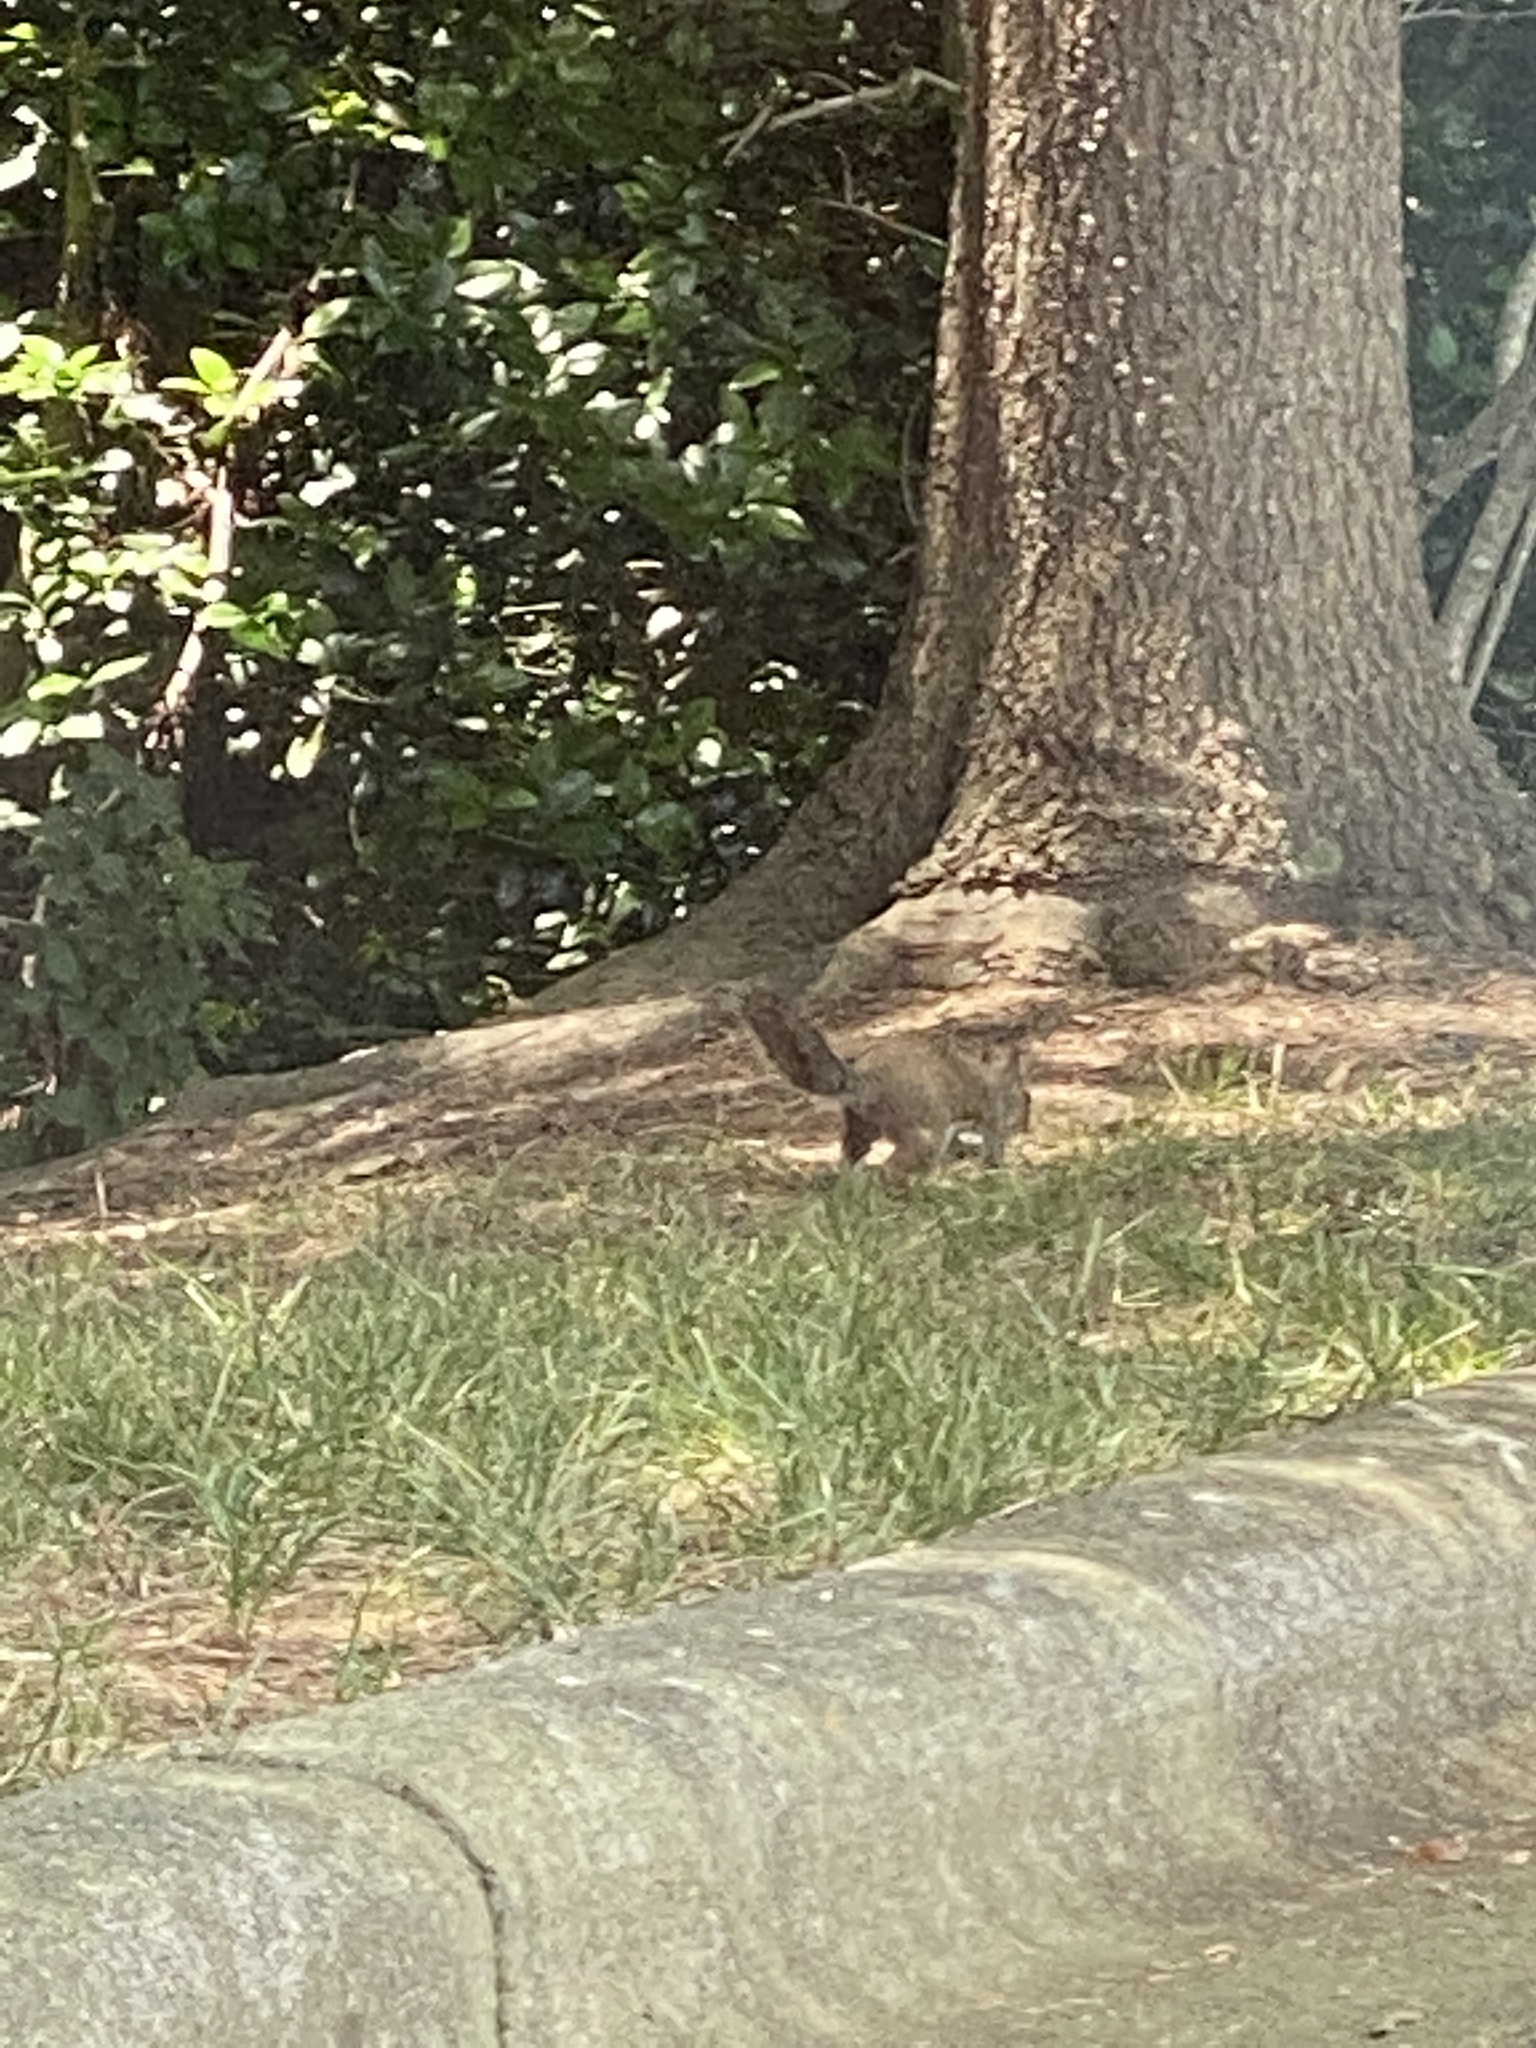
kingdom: Animalia
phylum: Chordata
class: Mammalia
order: Rodentia
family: Sciuridae
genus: Sciurus
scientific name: Sciurus carolinensis
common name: Eastern gray squirrel
